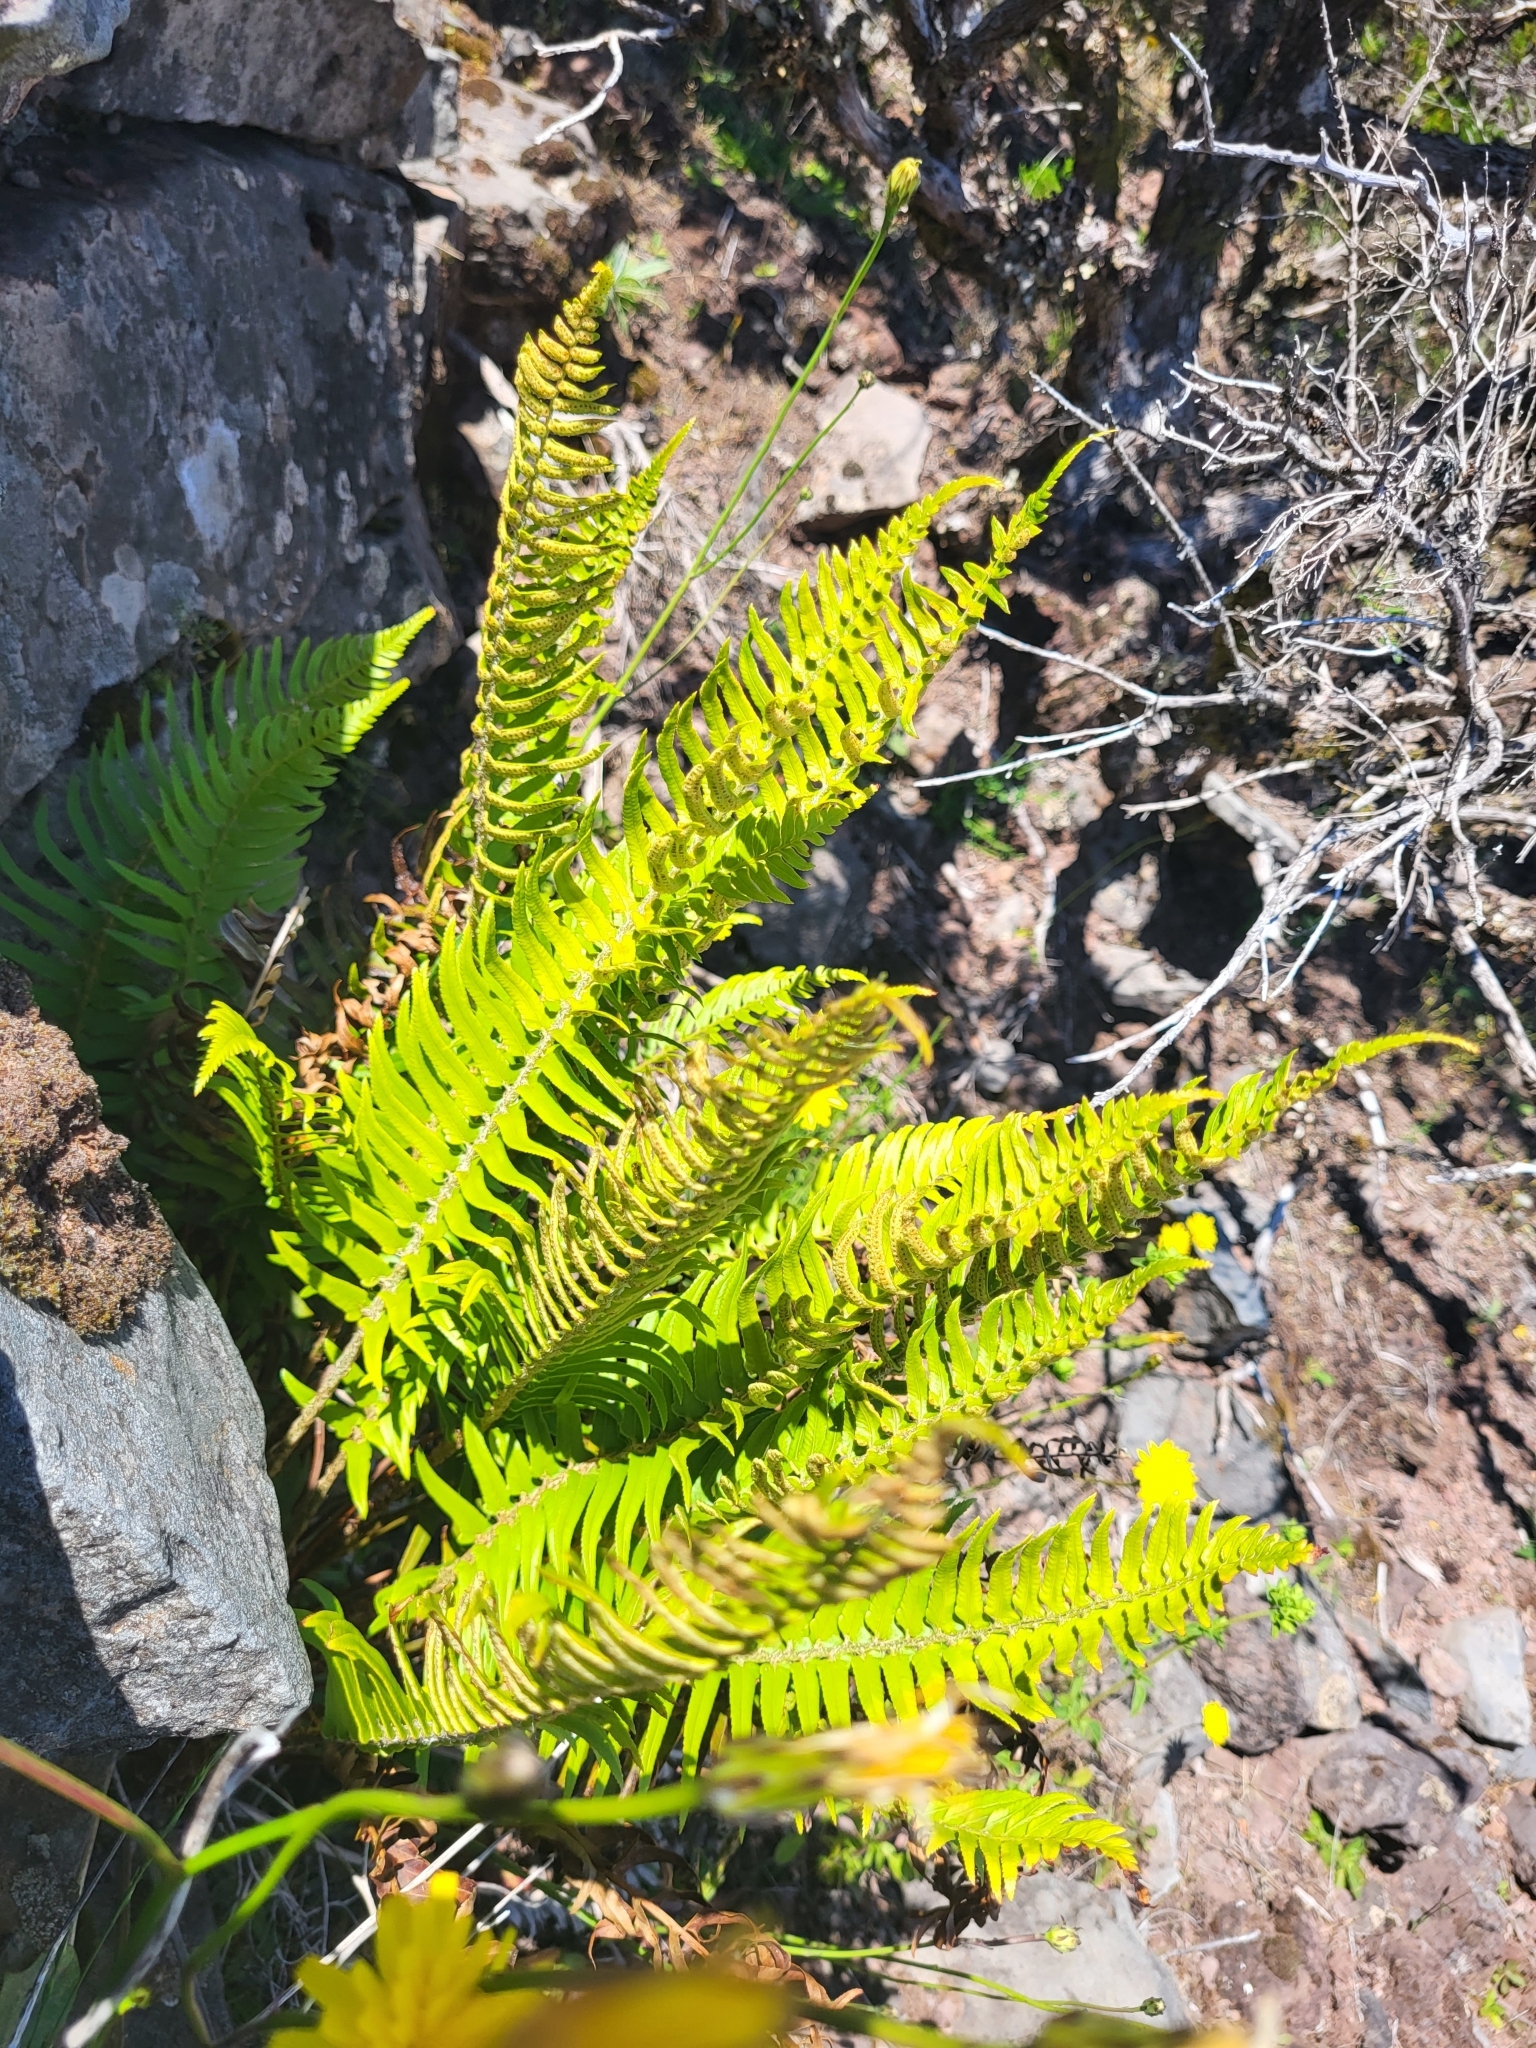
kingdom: Plantae
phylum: Tracheophyta
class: Polypodiopsida
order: Polypodiales
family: Dryopteridaceae
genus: Polystichum
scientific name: Polystichum falcinellum
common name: Madeira sword-fern
